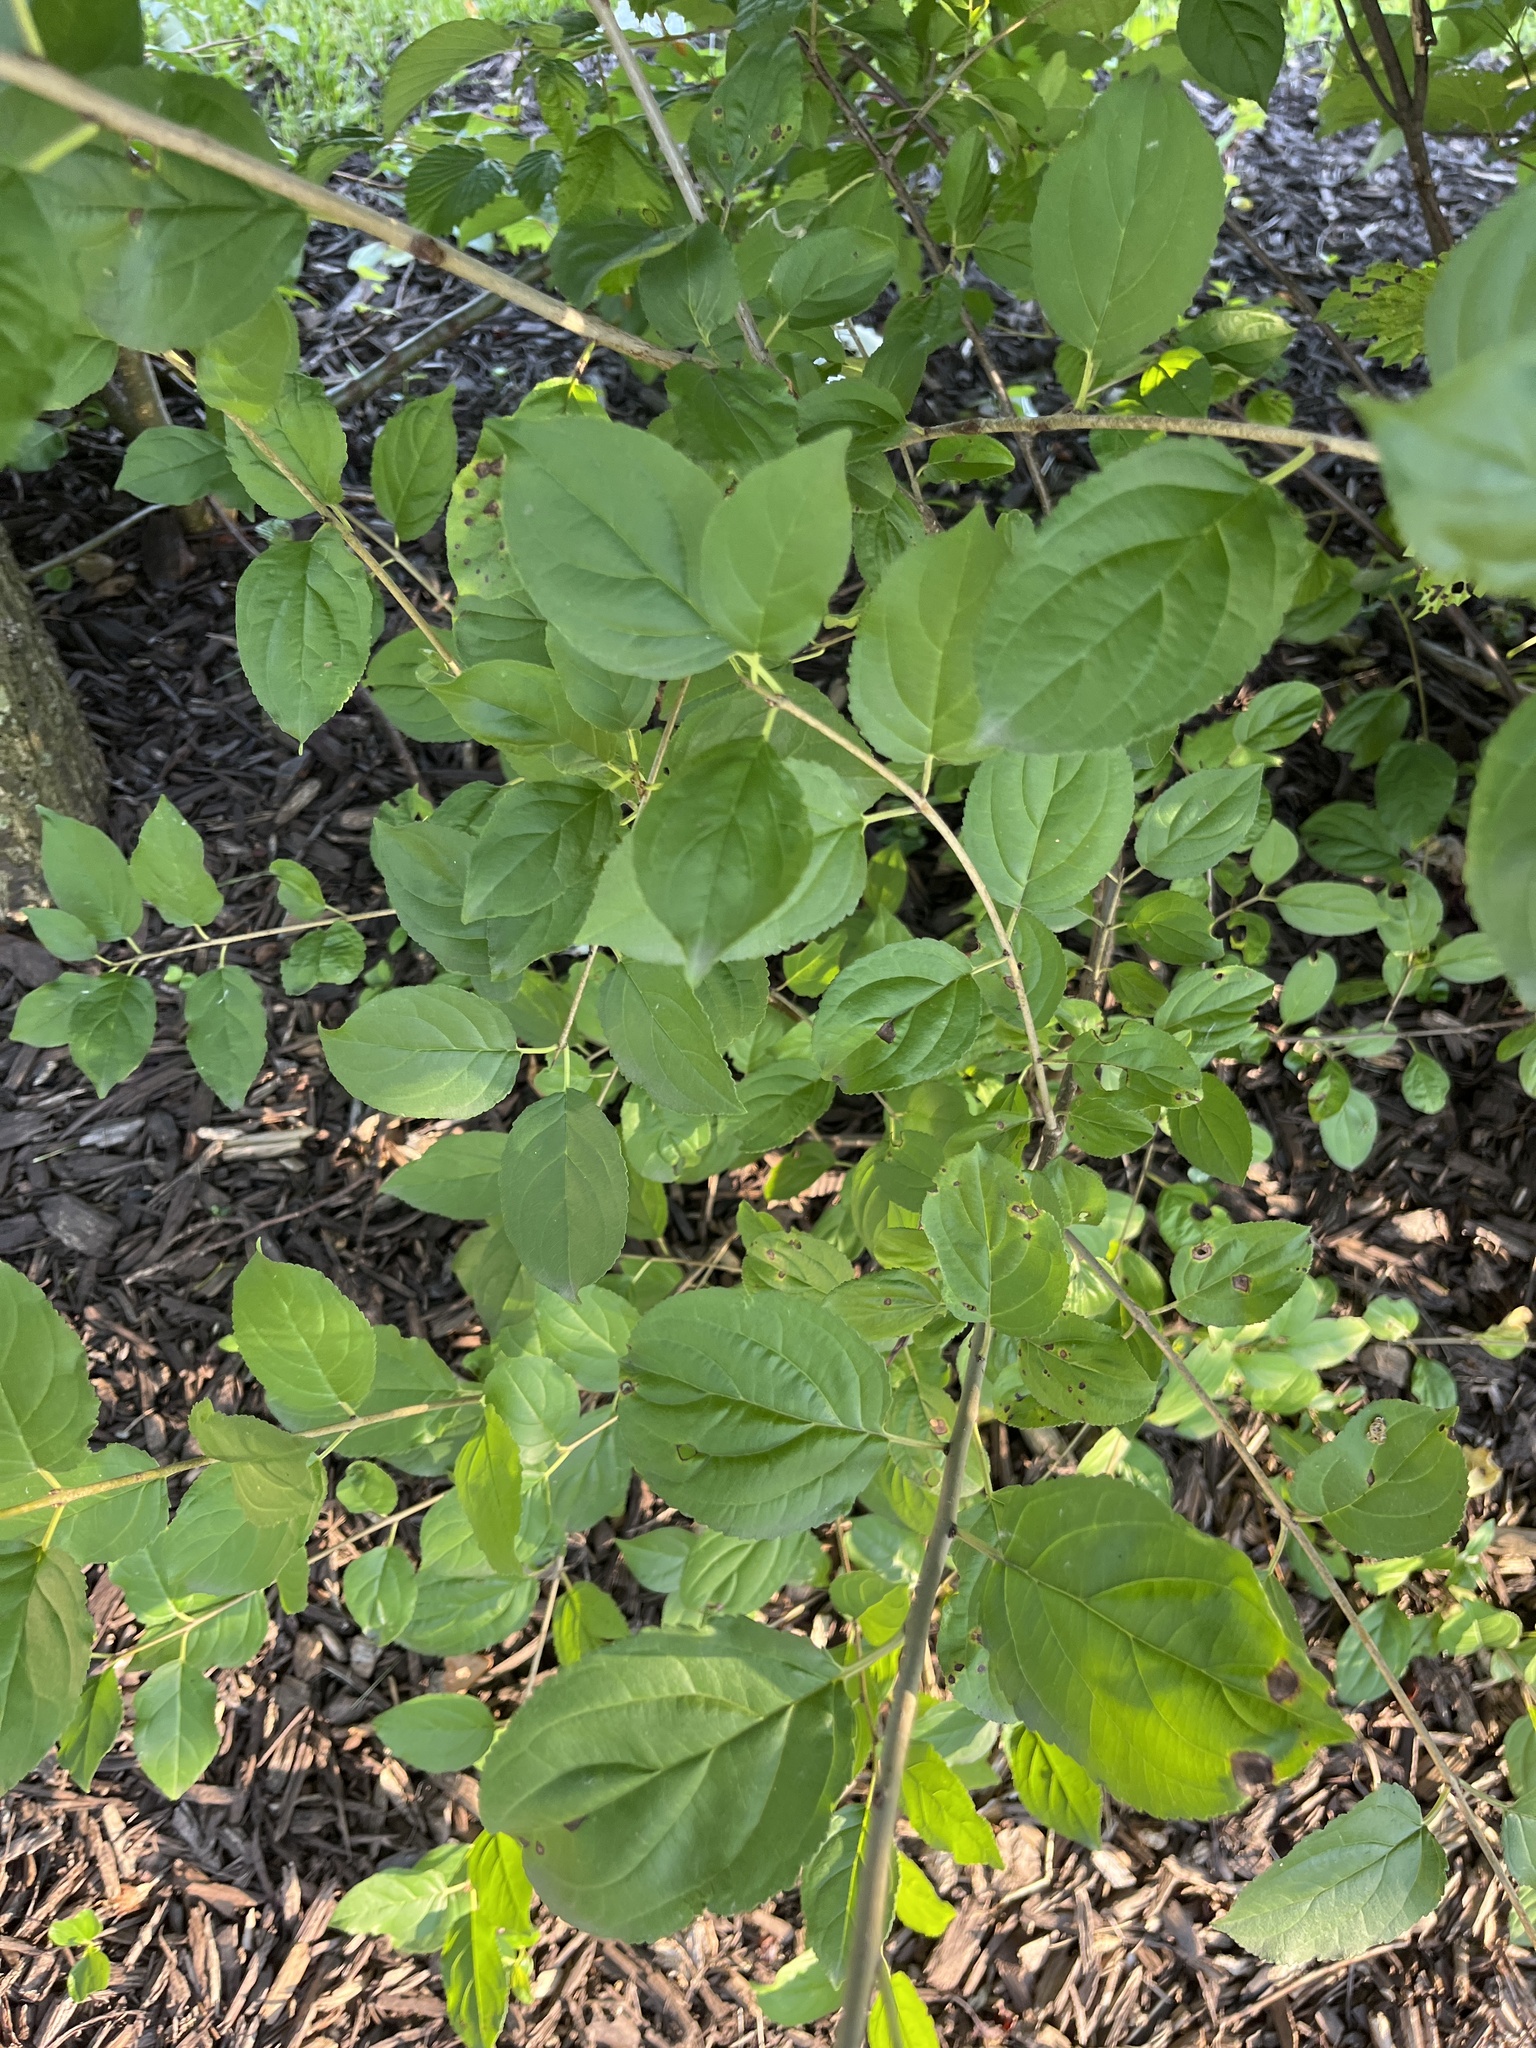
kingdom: Plantae
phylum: Tracheophyta
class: Magnoliopsida
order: Rosales
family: Rhamnaceae
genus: Rhamnus
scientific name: Rhamnus cathartica
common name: Common buckthorn
